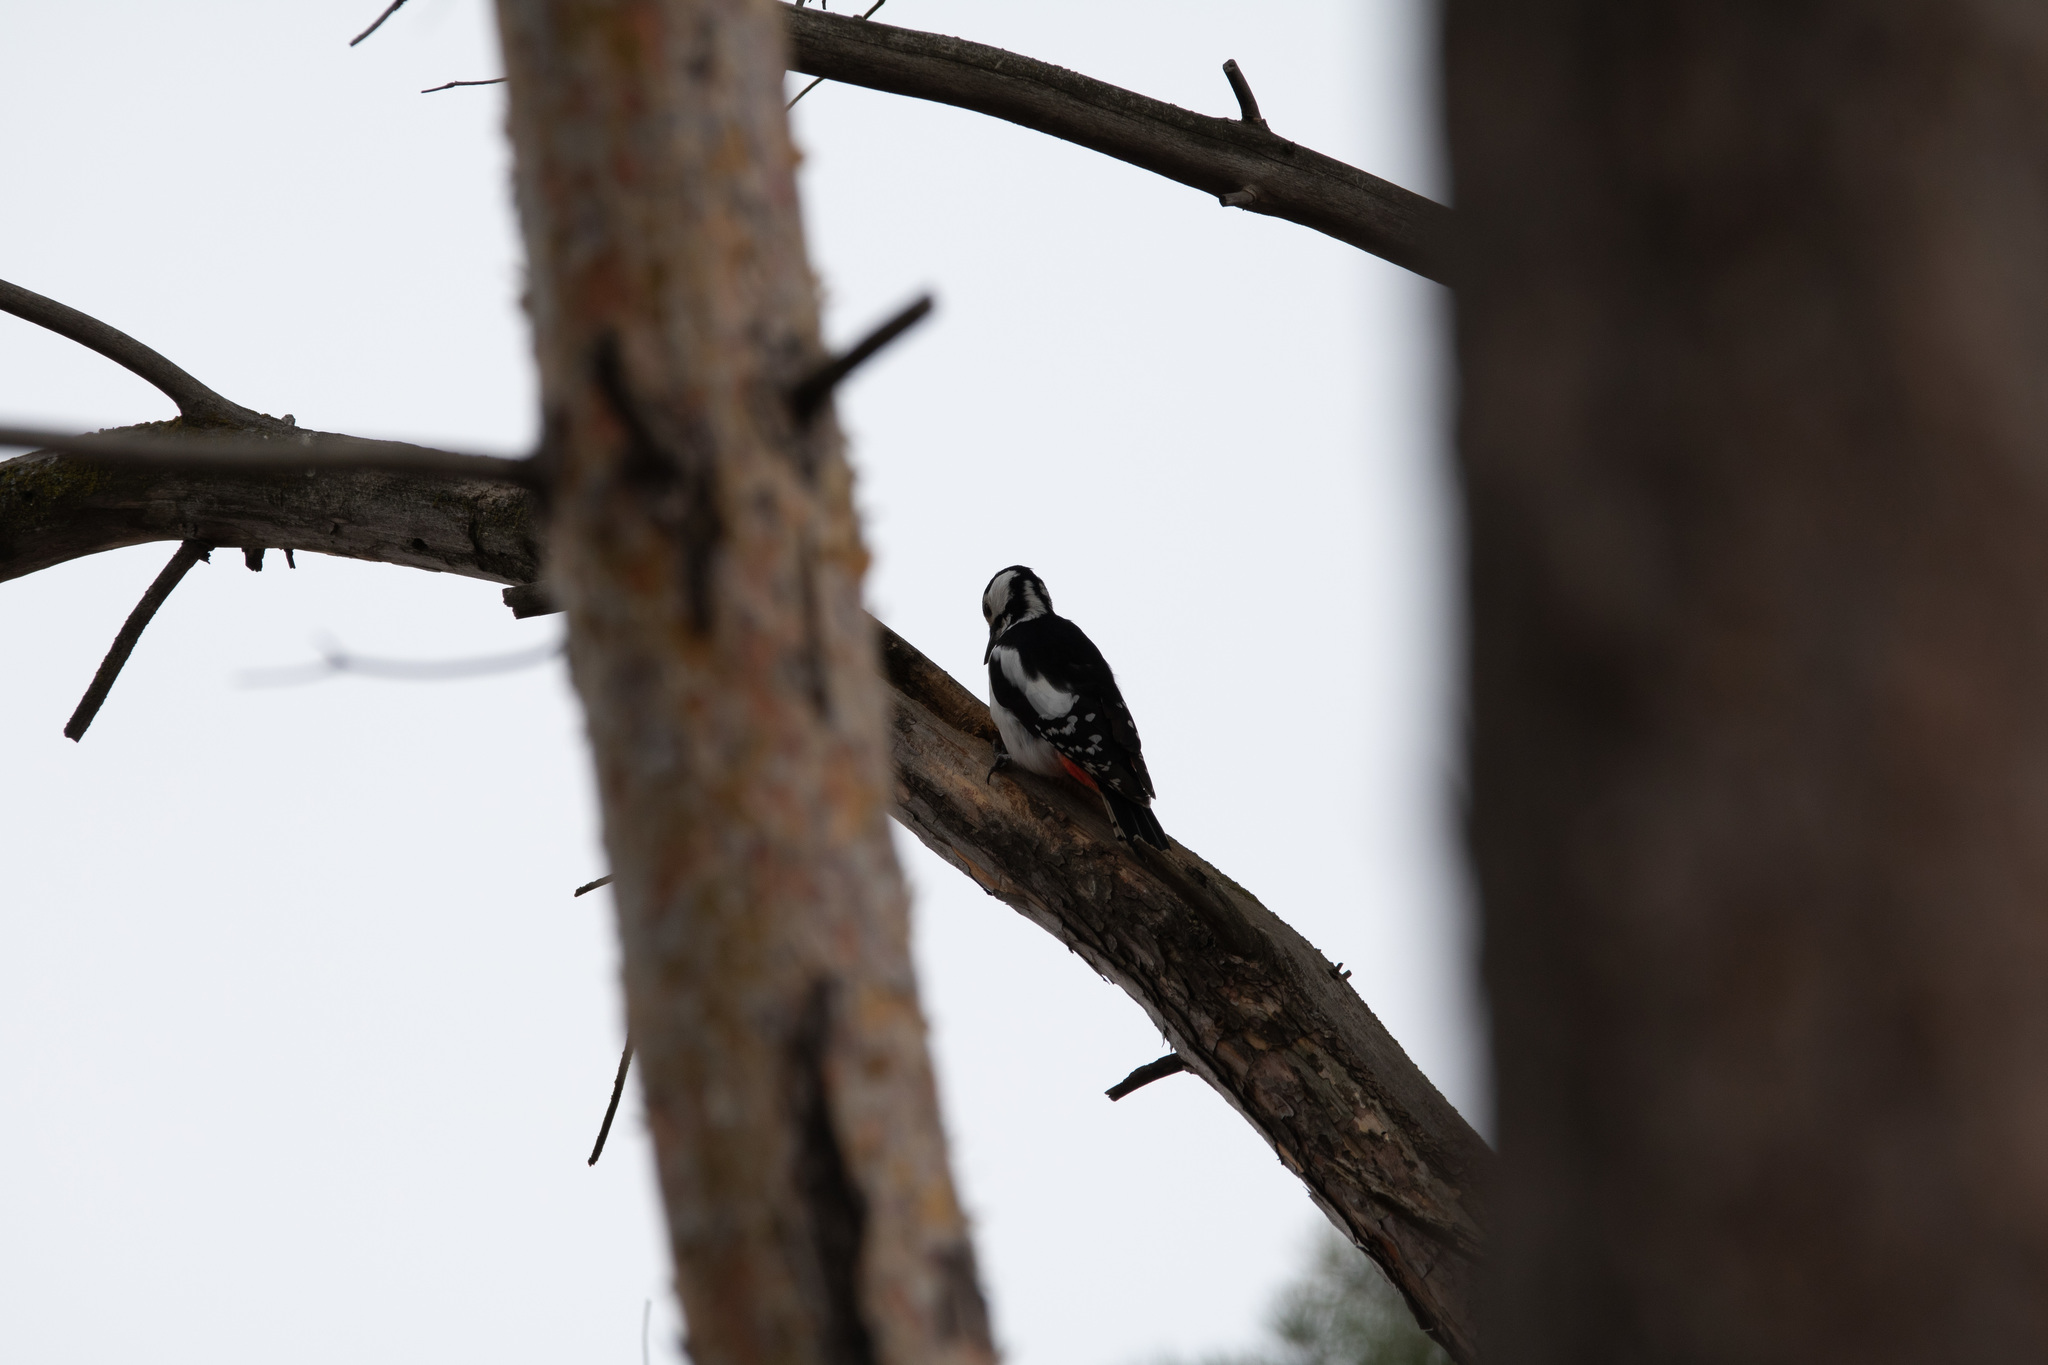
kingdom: Animalia
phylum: Chordata
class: Aves
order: Piciformes
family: Picidae
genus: Dendrocopos
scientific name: Dendrocopos major
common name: Great spotted woodpecker
